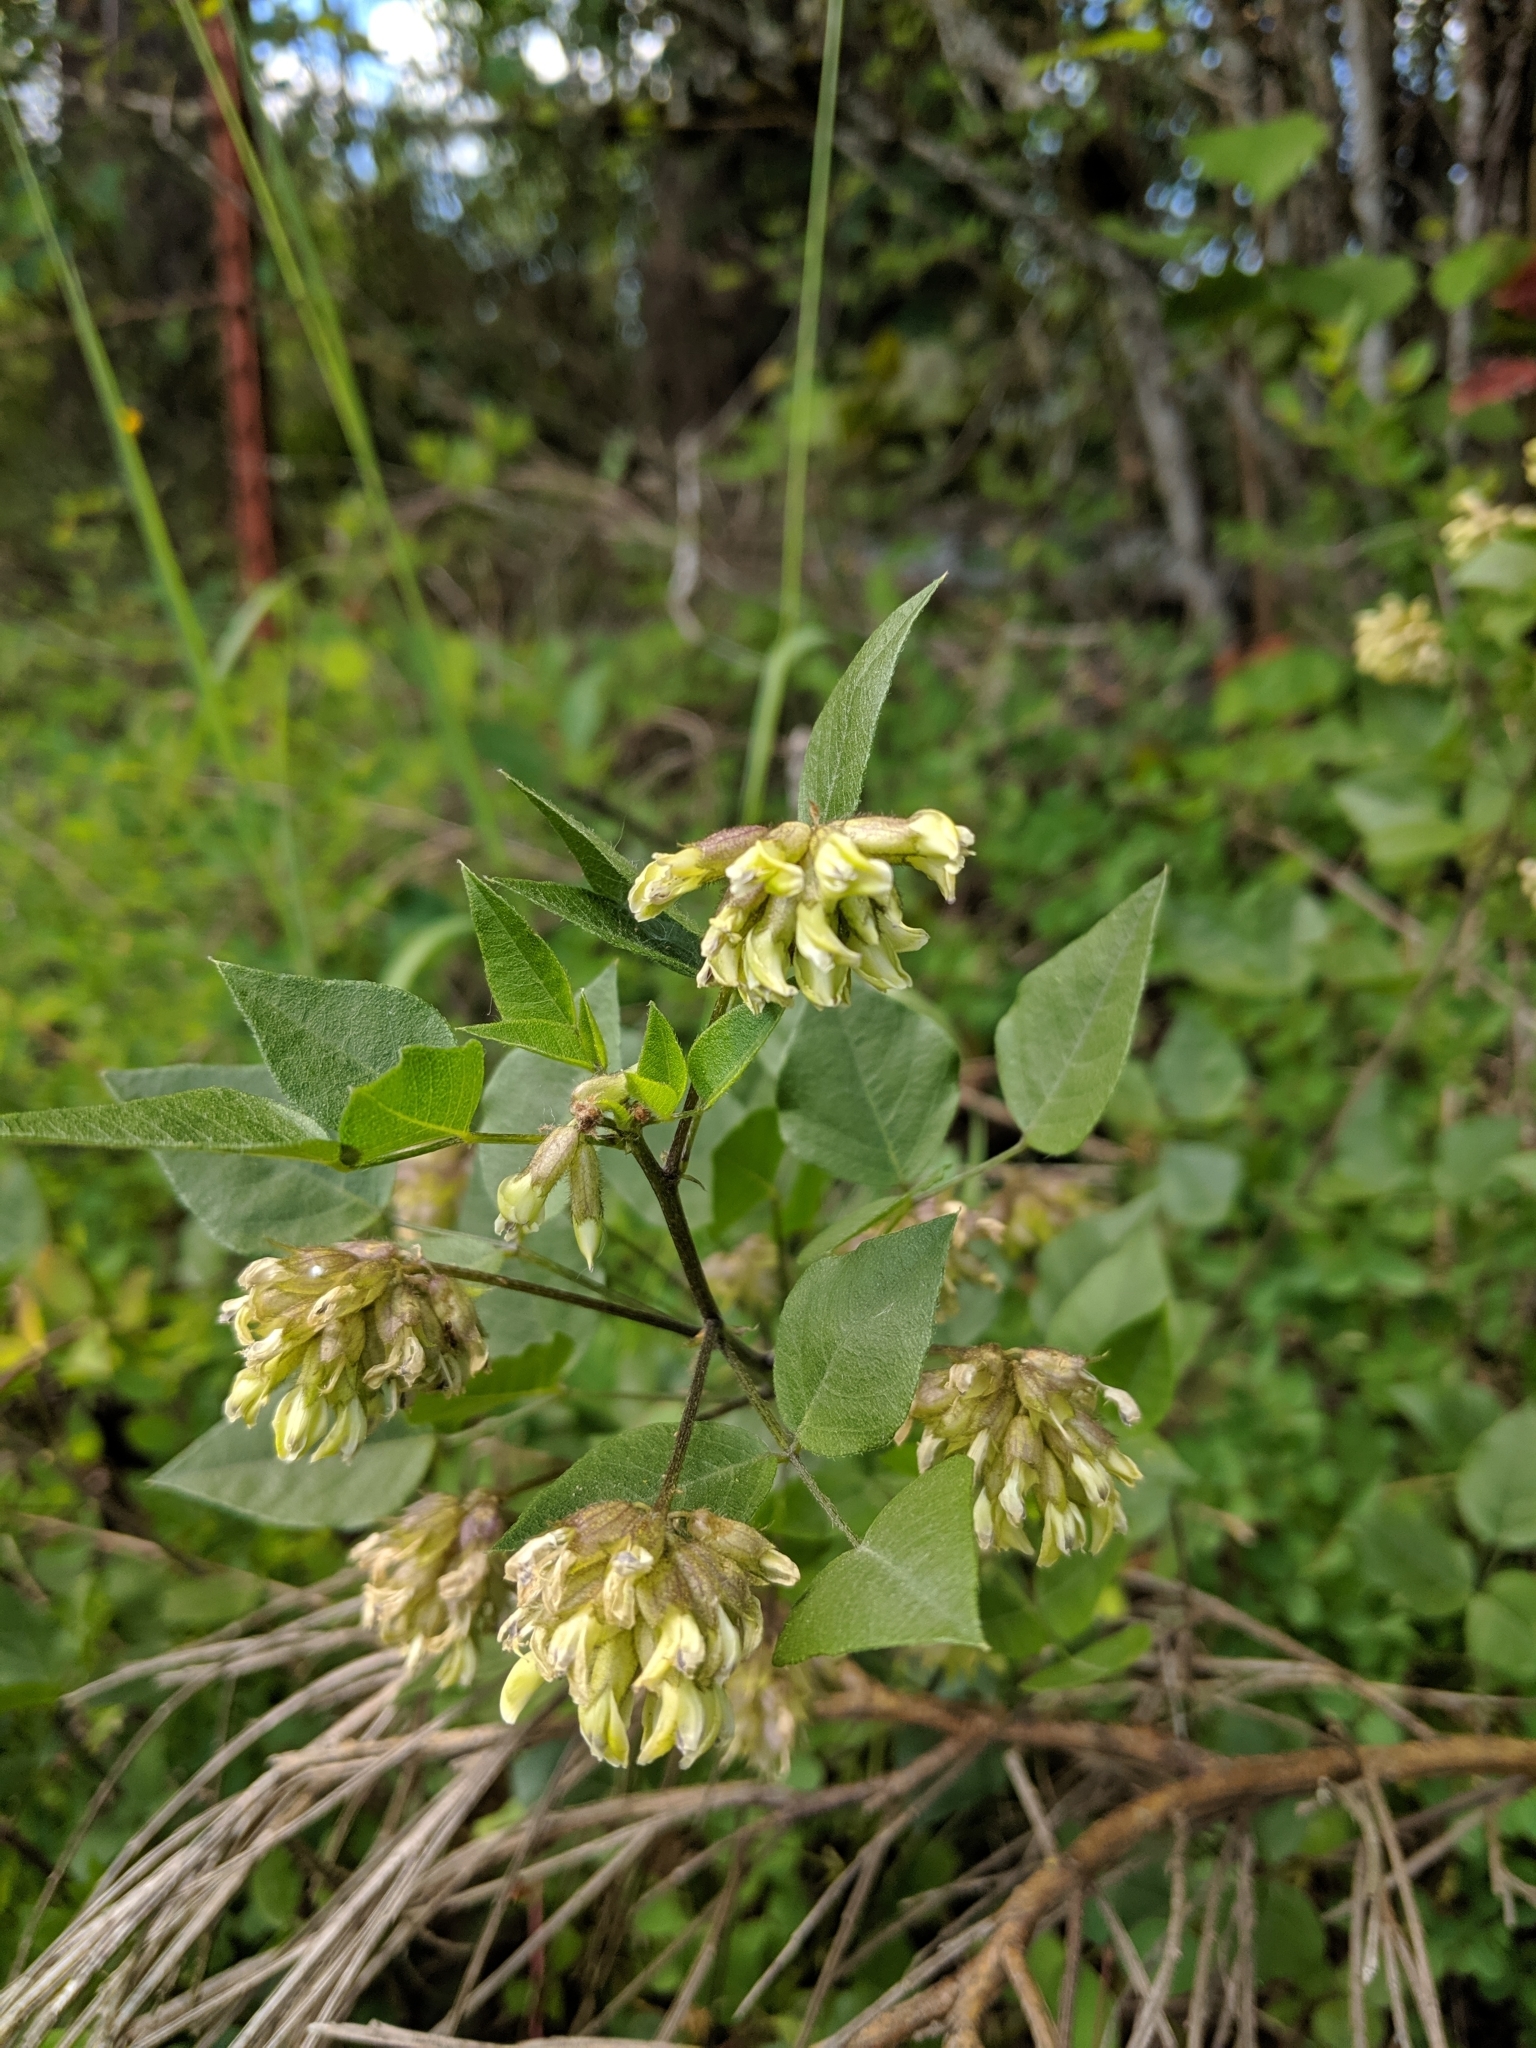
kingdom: Plantae
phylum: Tracheophyta
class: Magnoliopsida
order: Fabales
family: Fabaceae
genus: Rupertia
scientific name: Rupertia physodes
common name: California-tea
